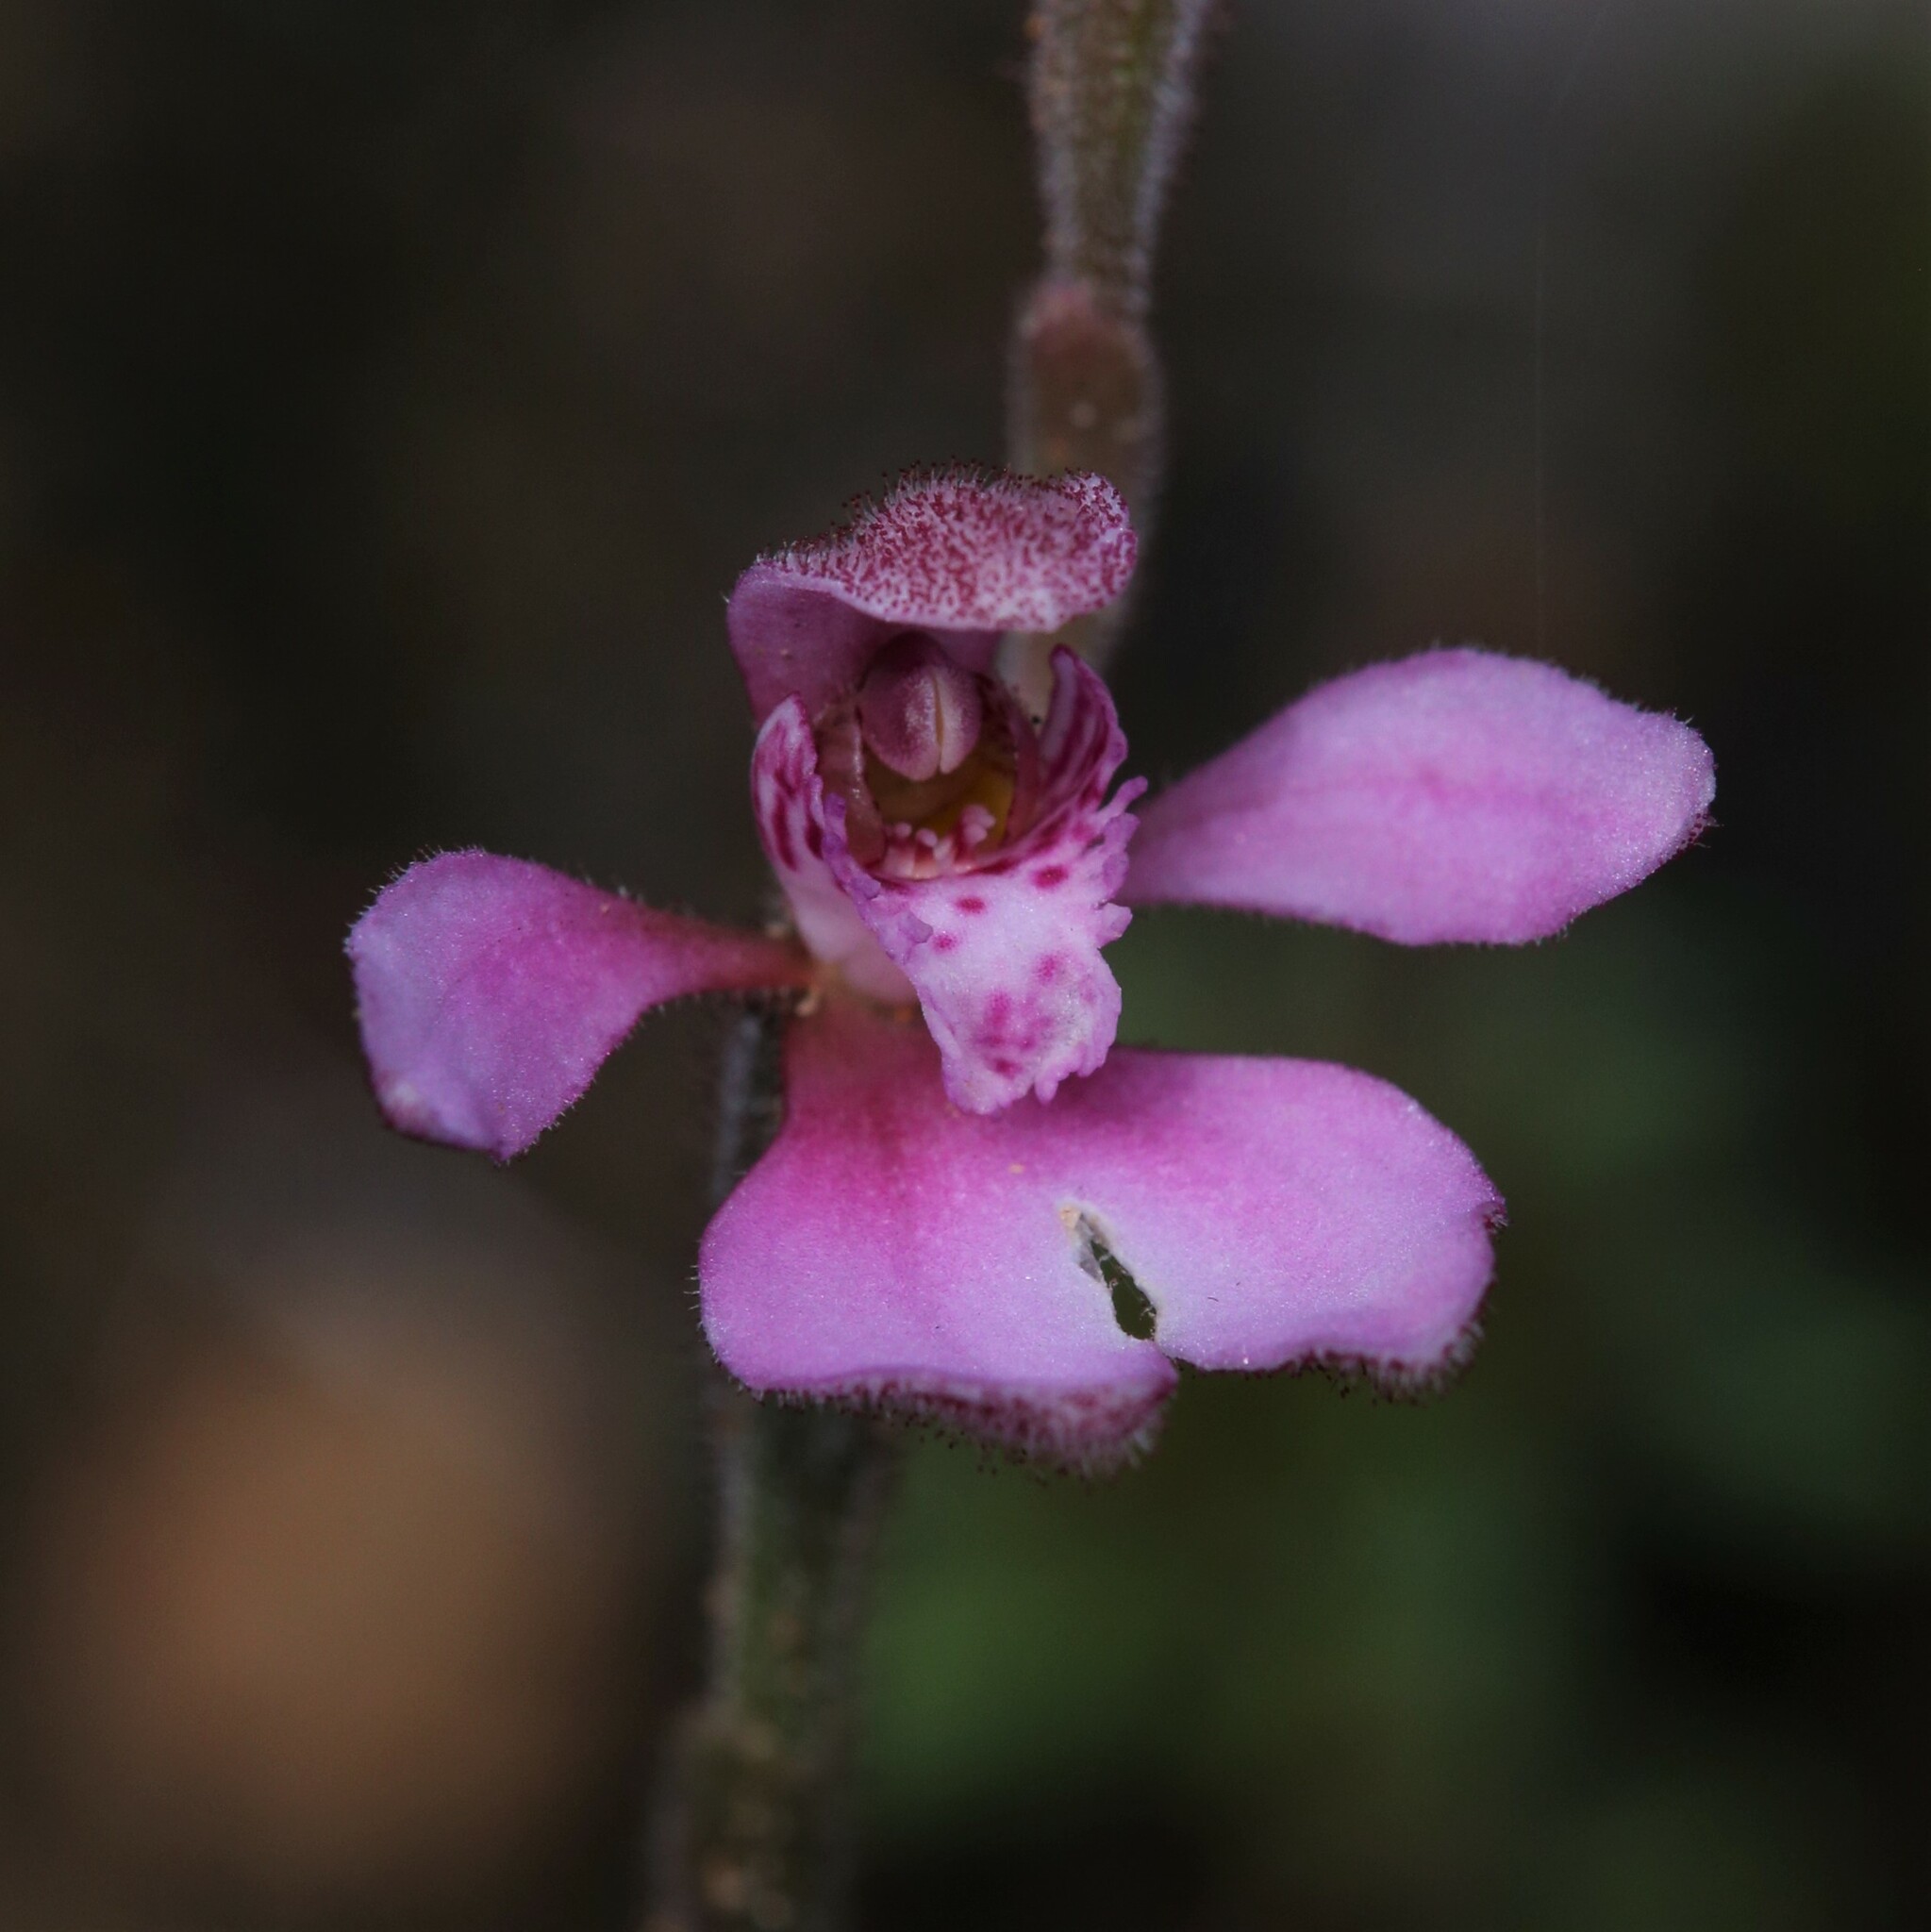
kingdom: Plantae
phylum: Tracheophyta
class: Liliopsida
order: Asparagales
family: Orchidaceae
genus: Caladenia
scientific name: Caladenia nana
